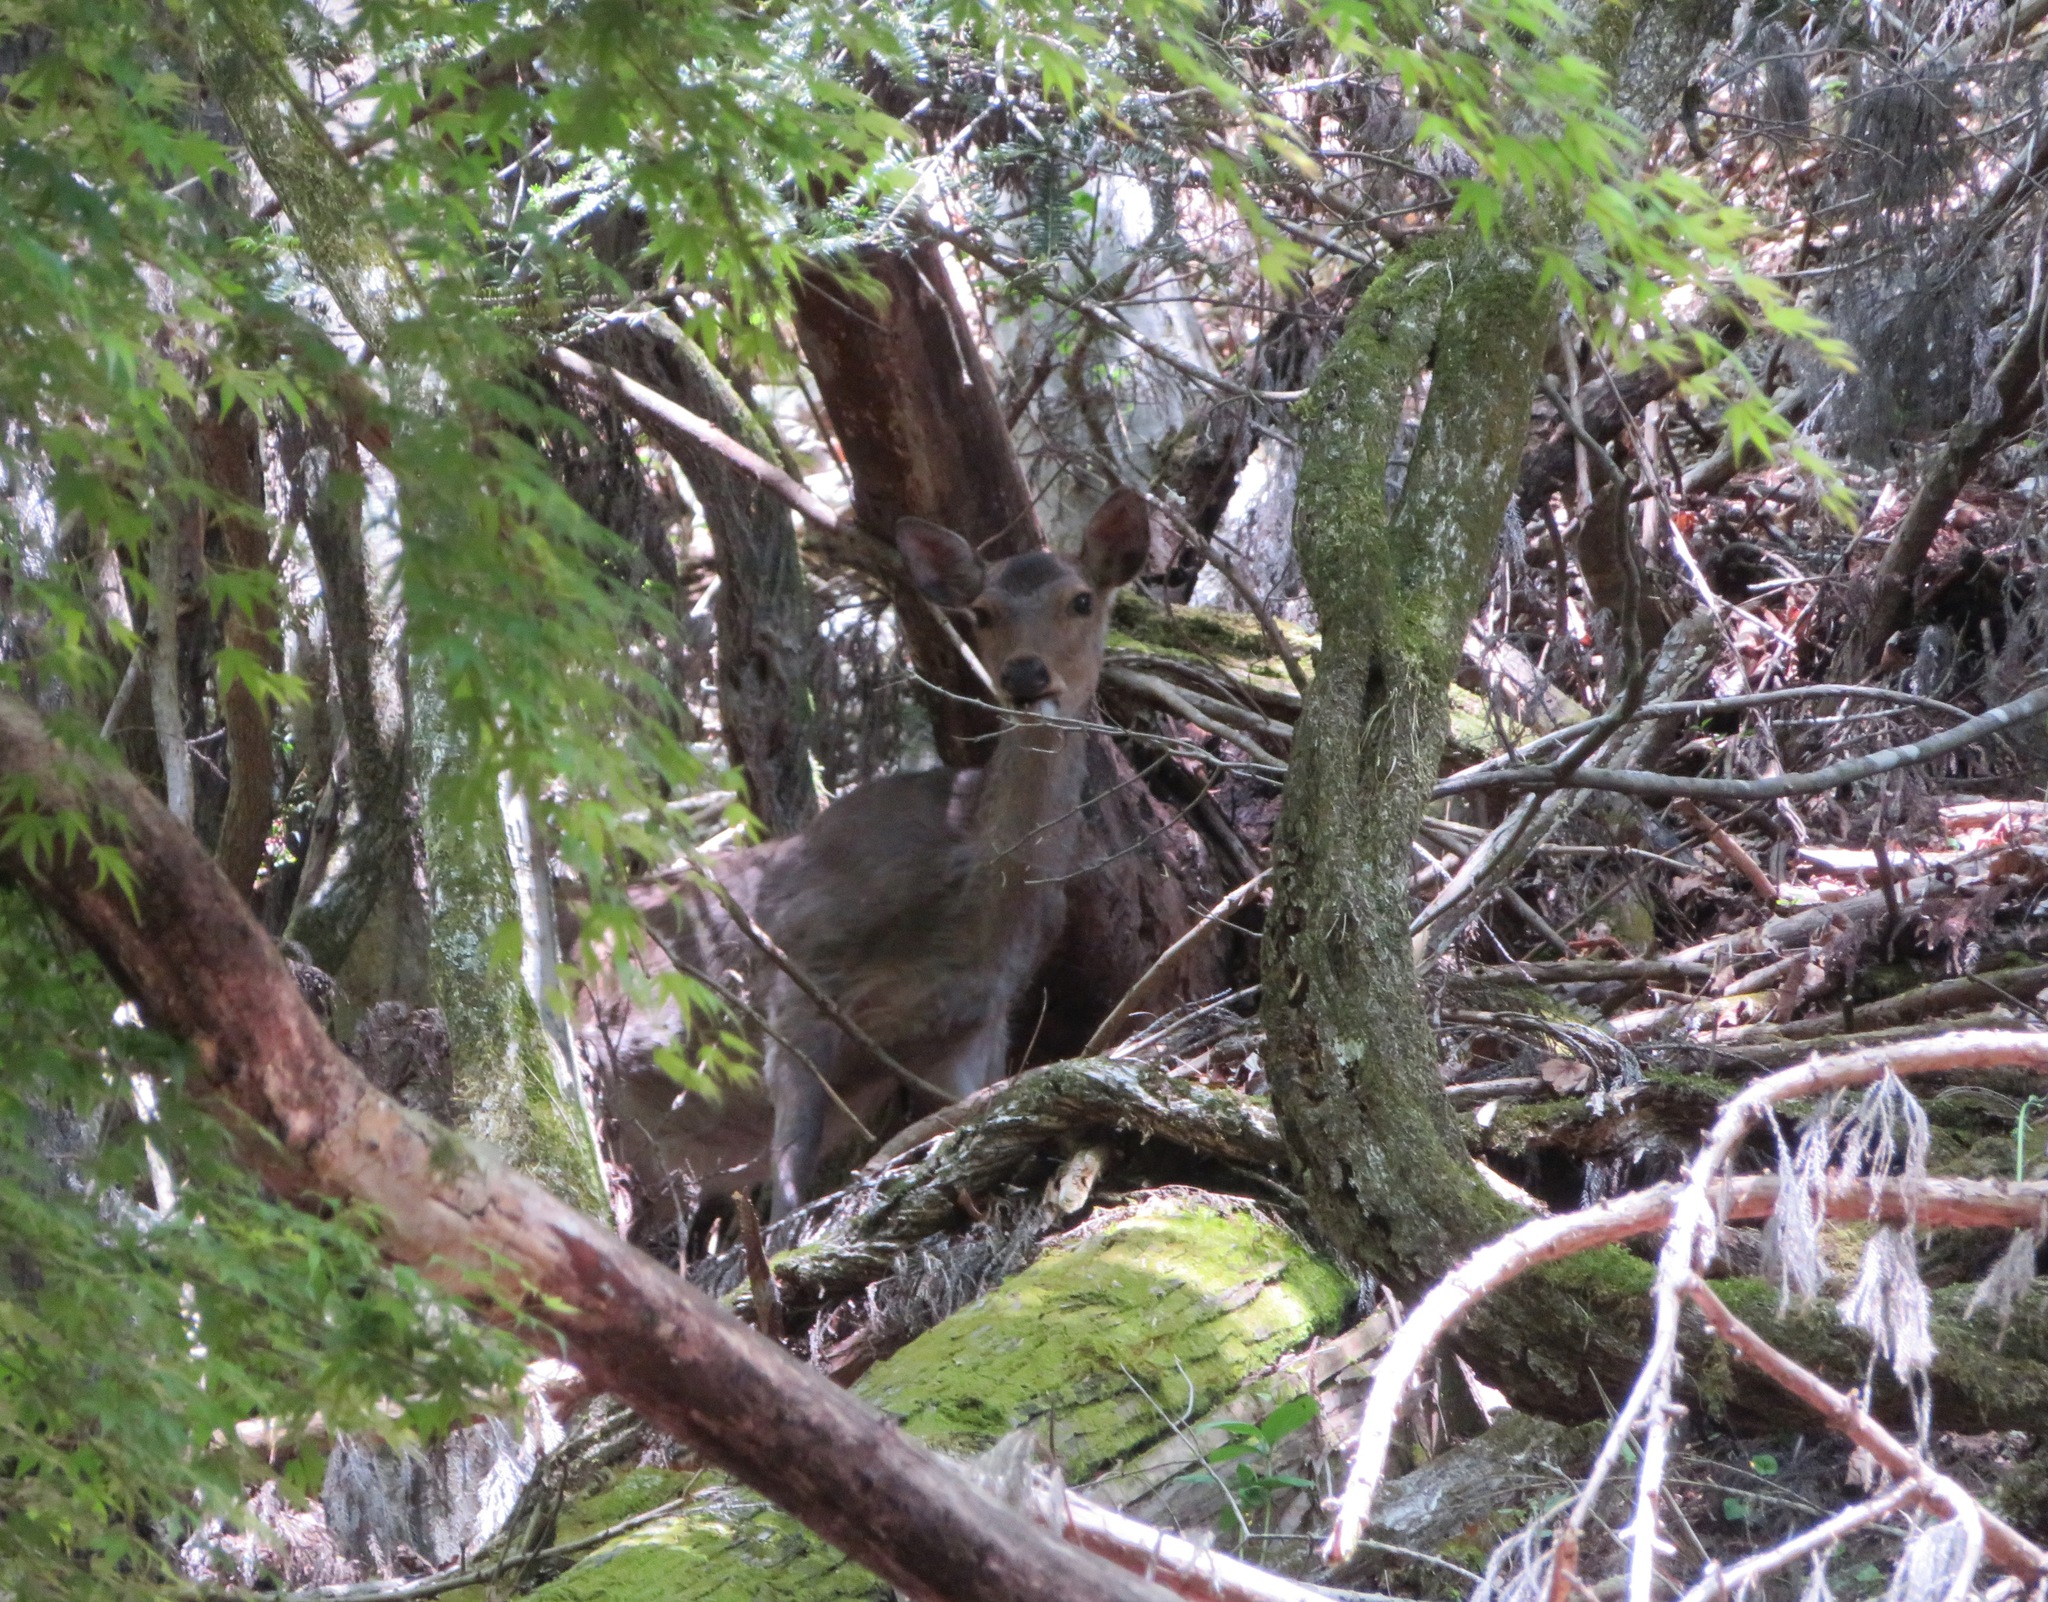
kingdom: Animalia
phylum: Chordata
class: Mammalia
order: Artiodactyla
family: Cervidae
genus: Cervus
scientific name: Cervus nippon
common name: Sika deer
